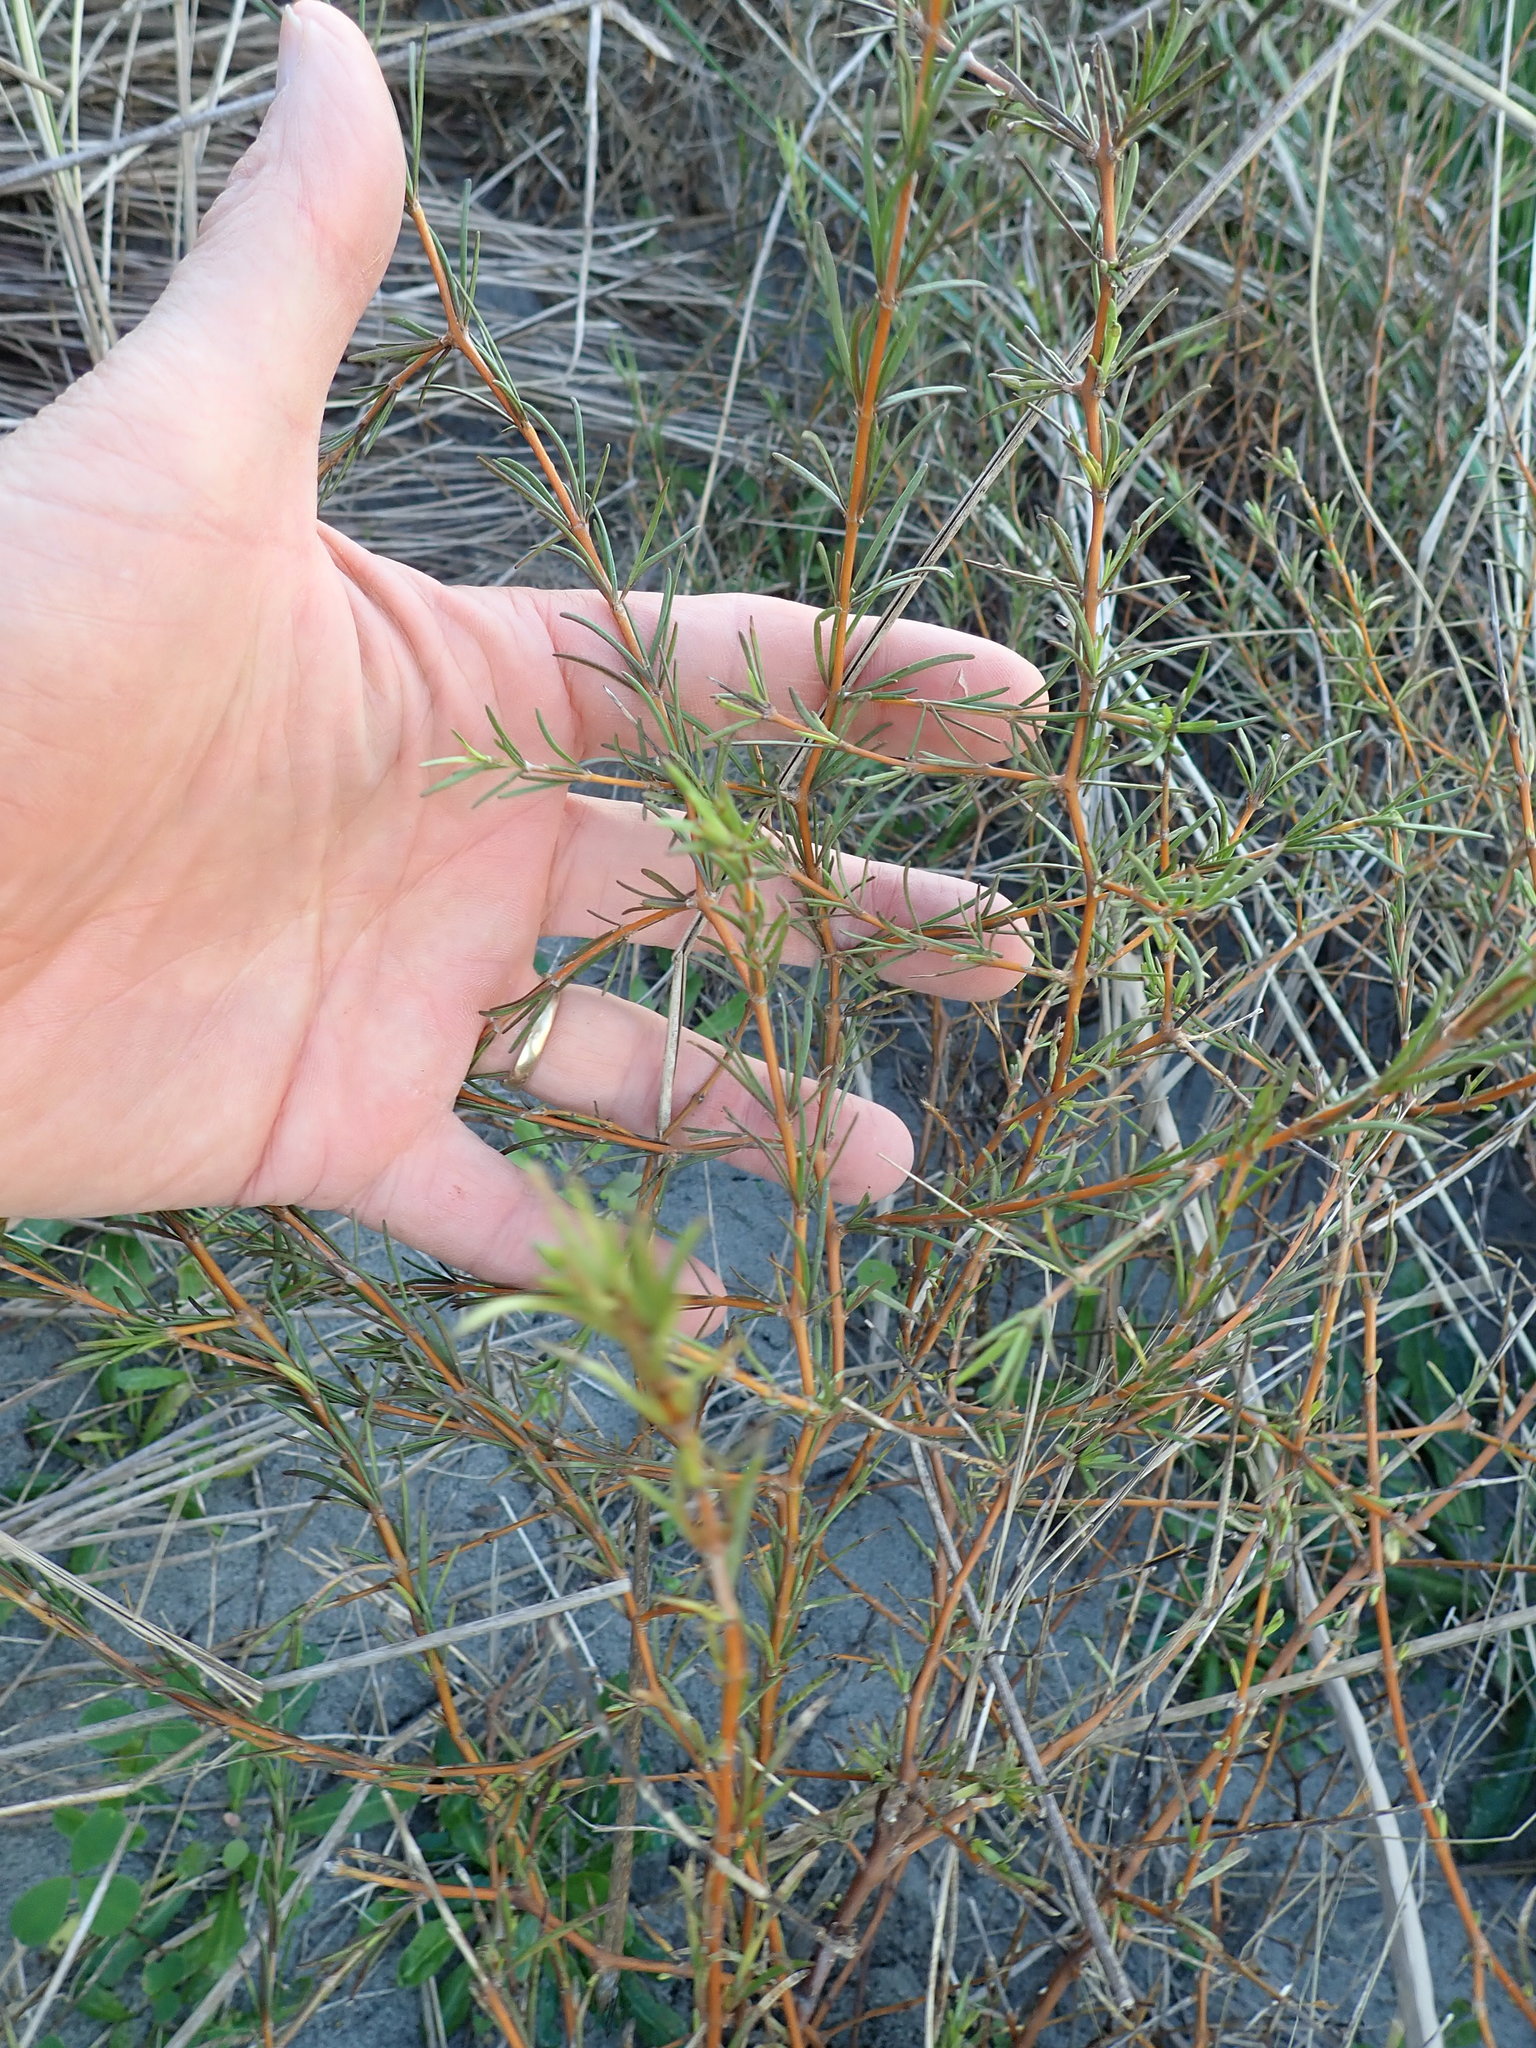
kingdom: Plantae
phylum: Tracheophyta
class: Magnoliopsida
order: Gentianales
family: Rubiaceae
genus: Coprosma
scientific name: Coprosma acerosa
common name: Sand coprosma
